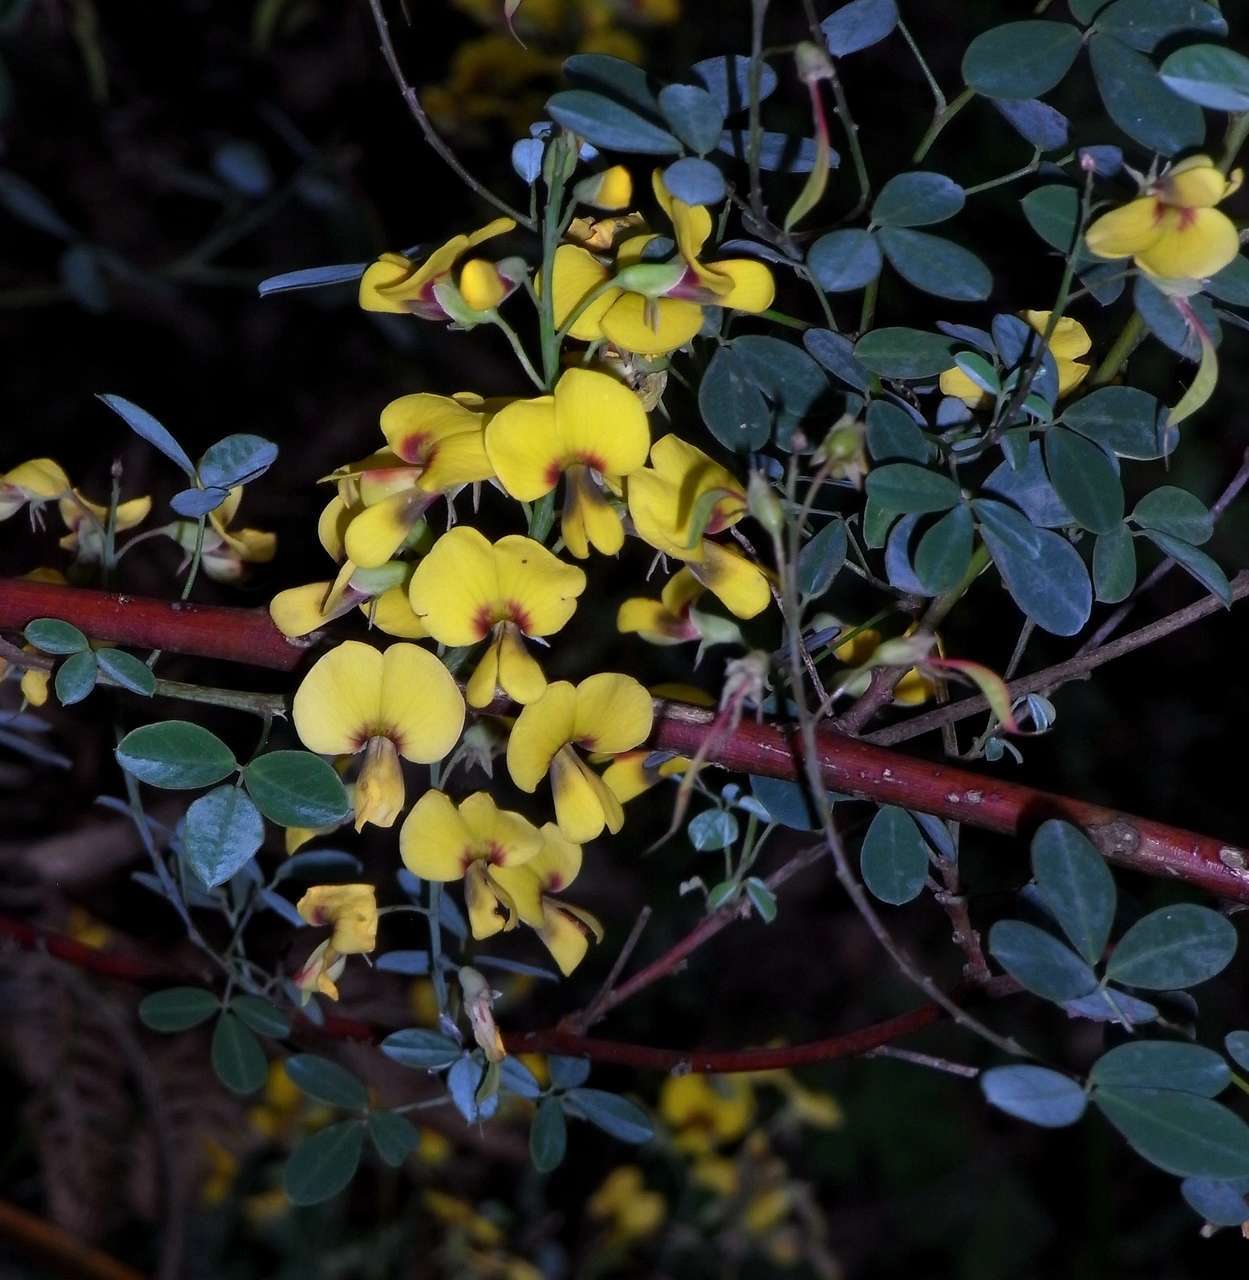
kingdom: Plantae
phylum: Tracheophyta
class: Magnoliopsida
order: Fabales
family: Fabaceae
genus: Goodia
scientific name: Goodia lotifolia
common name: Cloverleaf-poison
